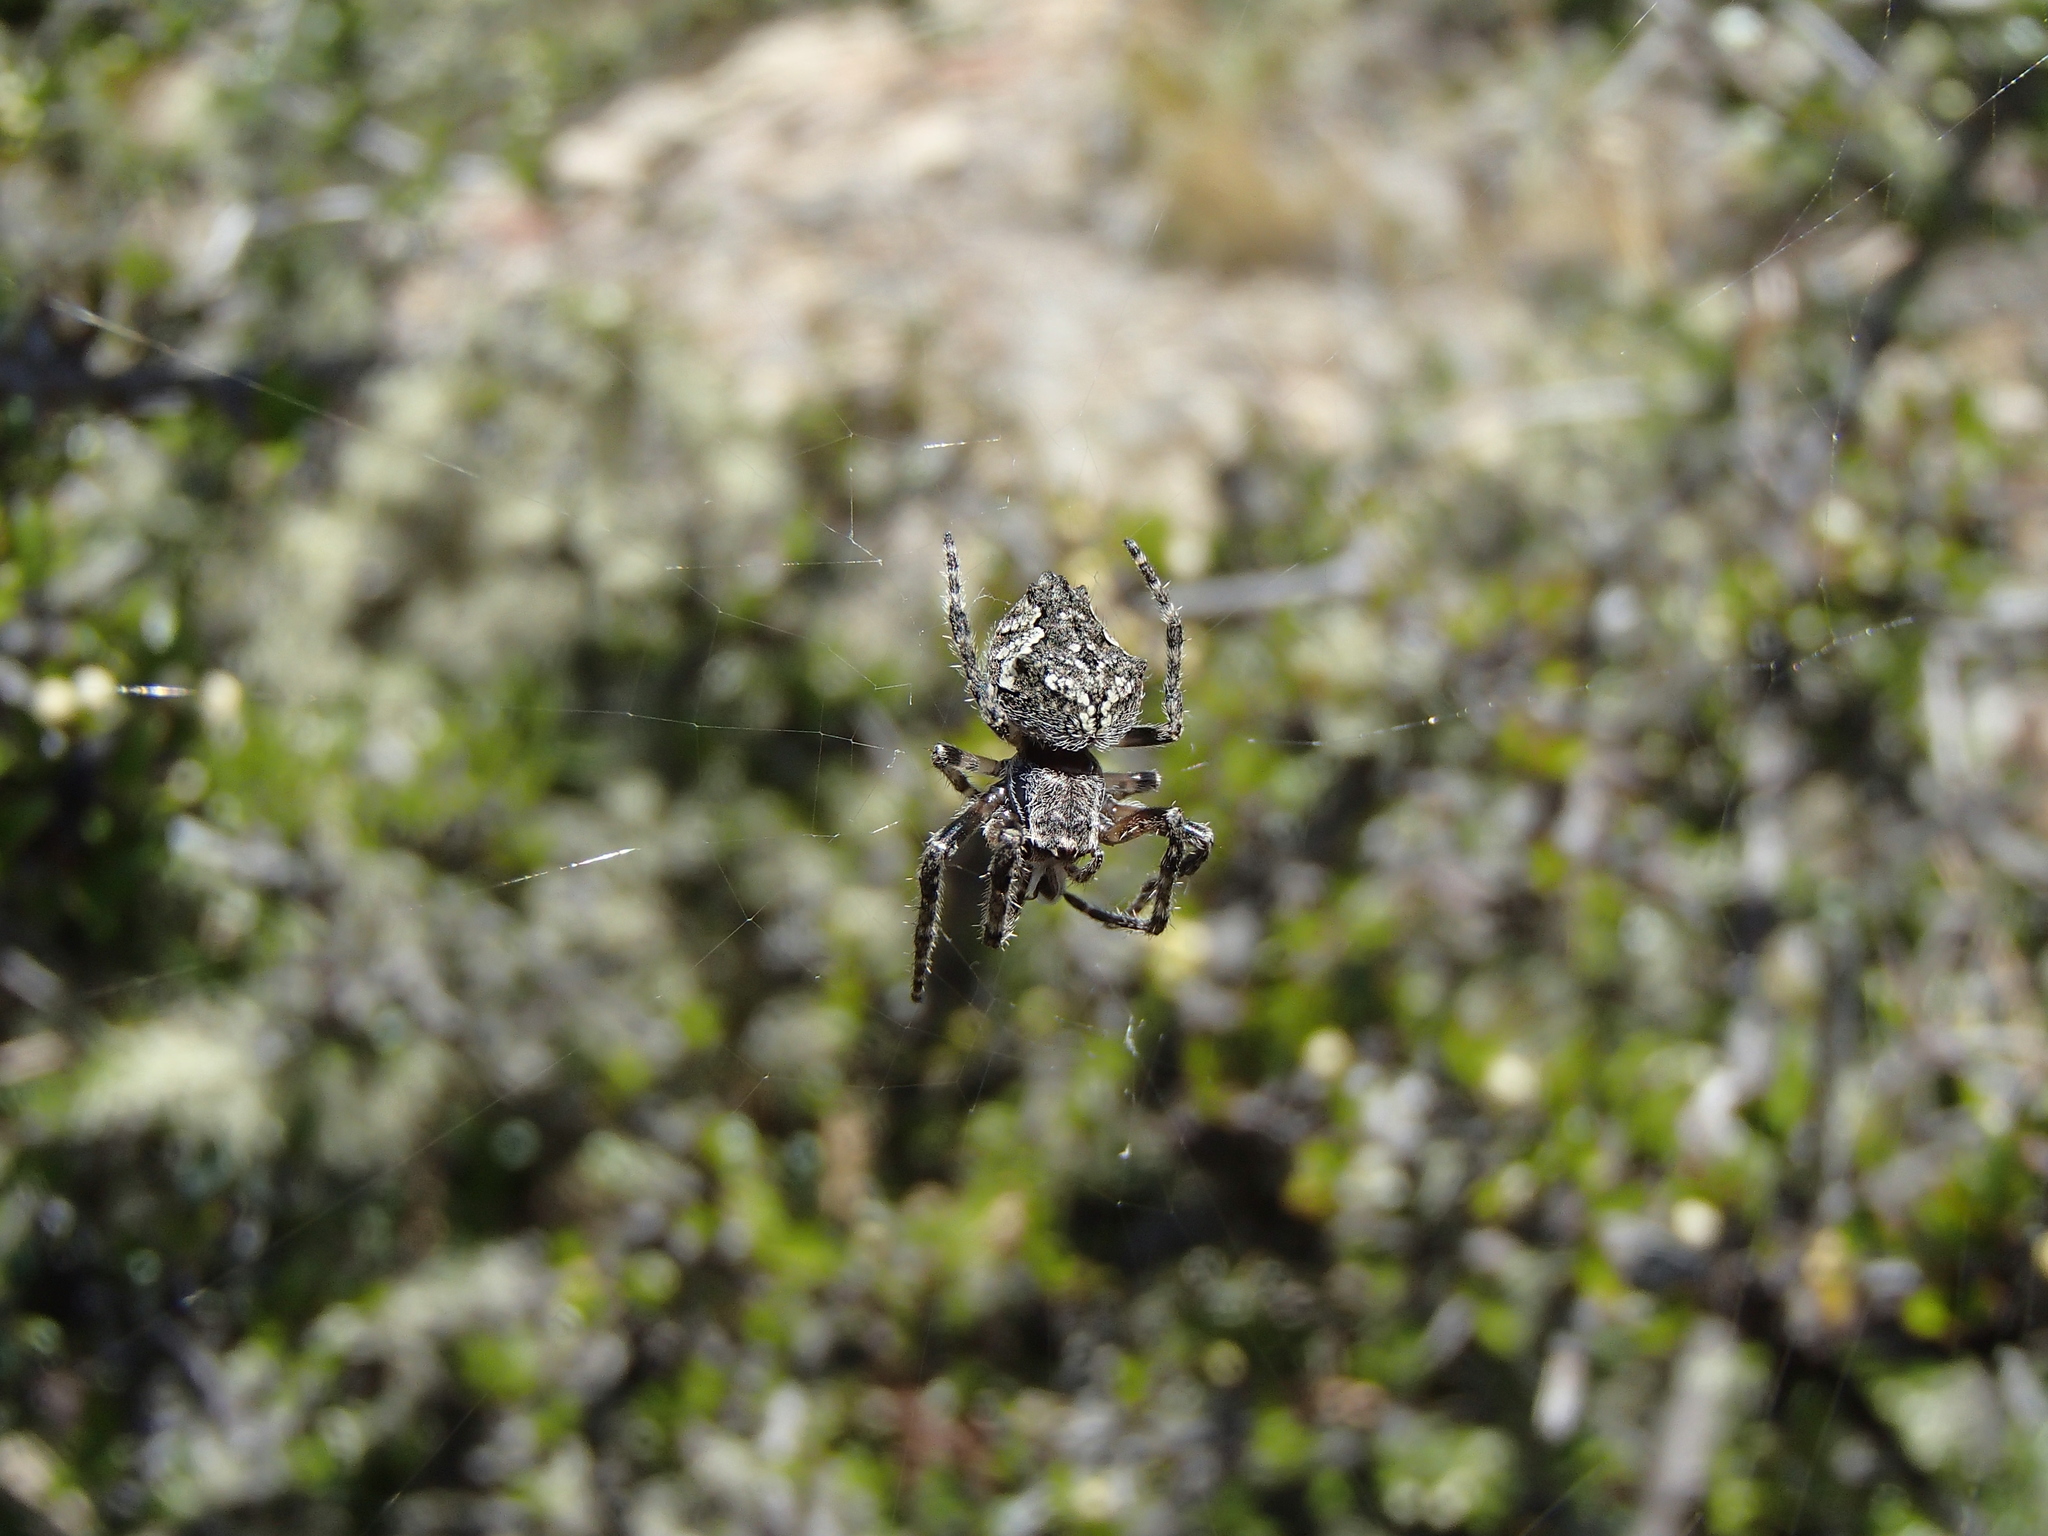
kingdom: Animalia
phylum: Arthropoda
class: Arachnida
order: Araneae
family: Araneidae
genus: Eriophora
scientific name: Eriophora pustulosa
